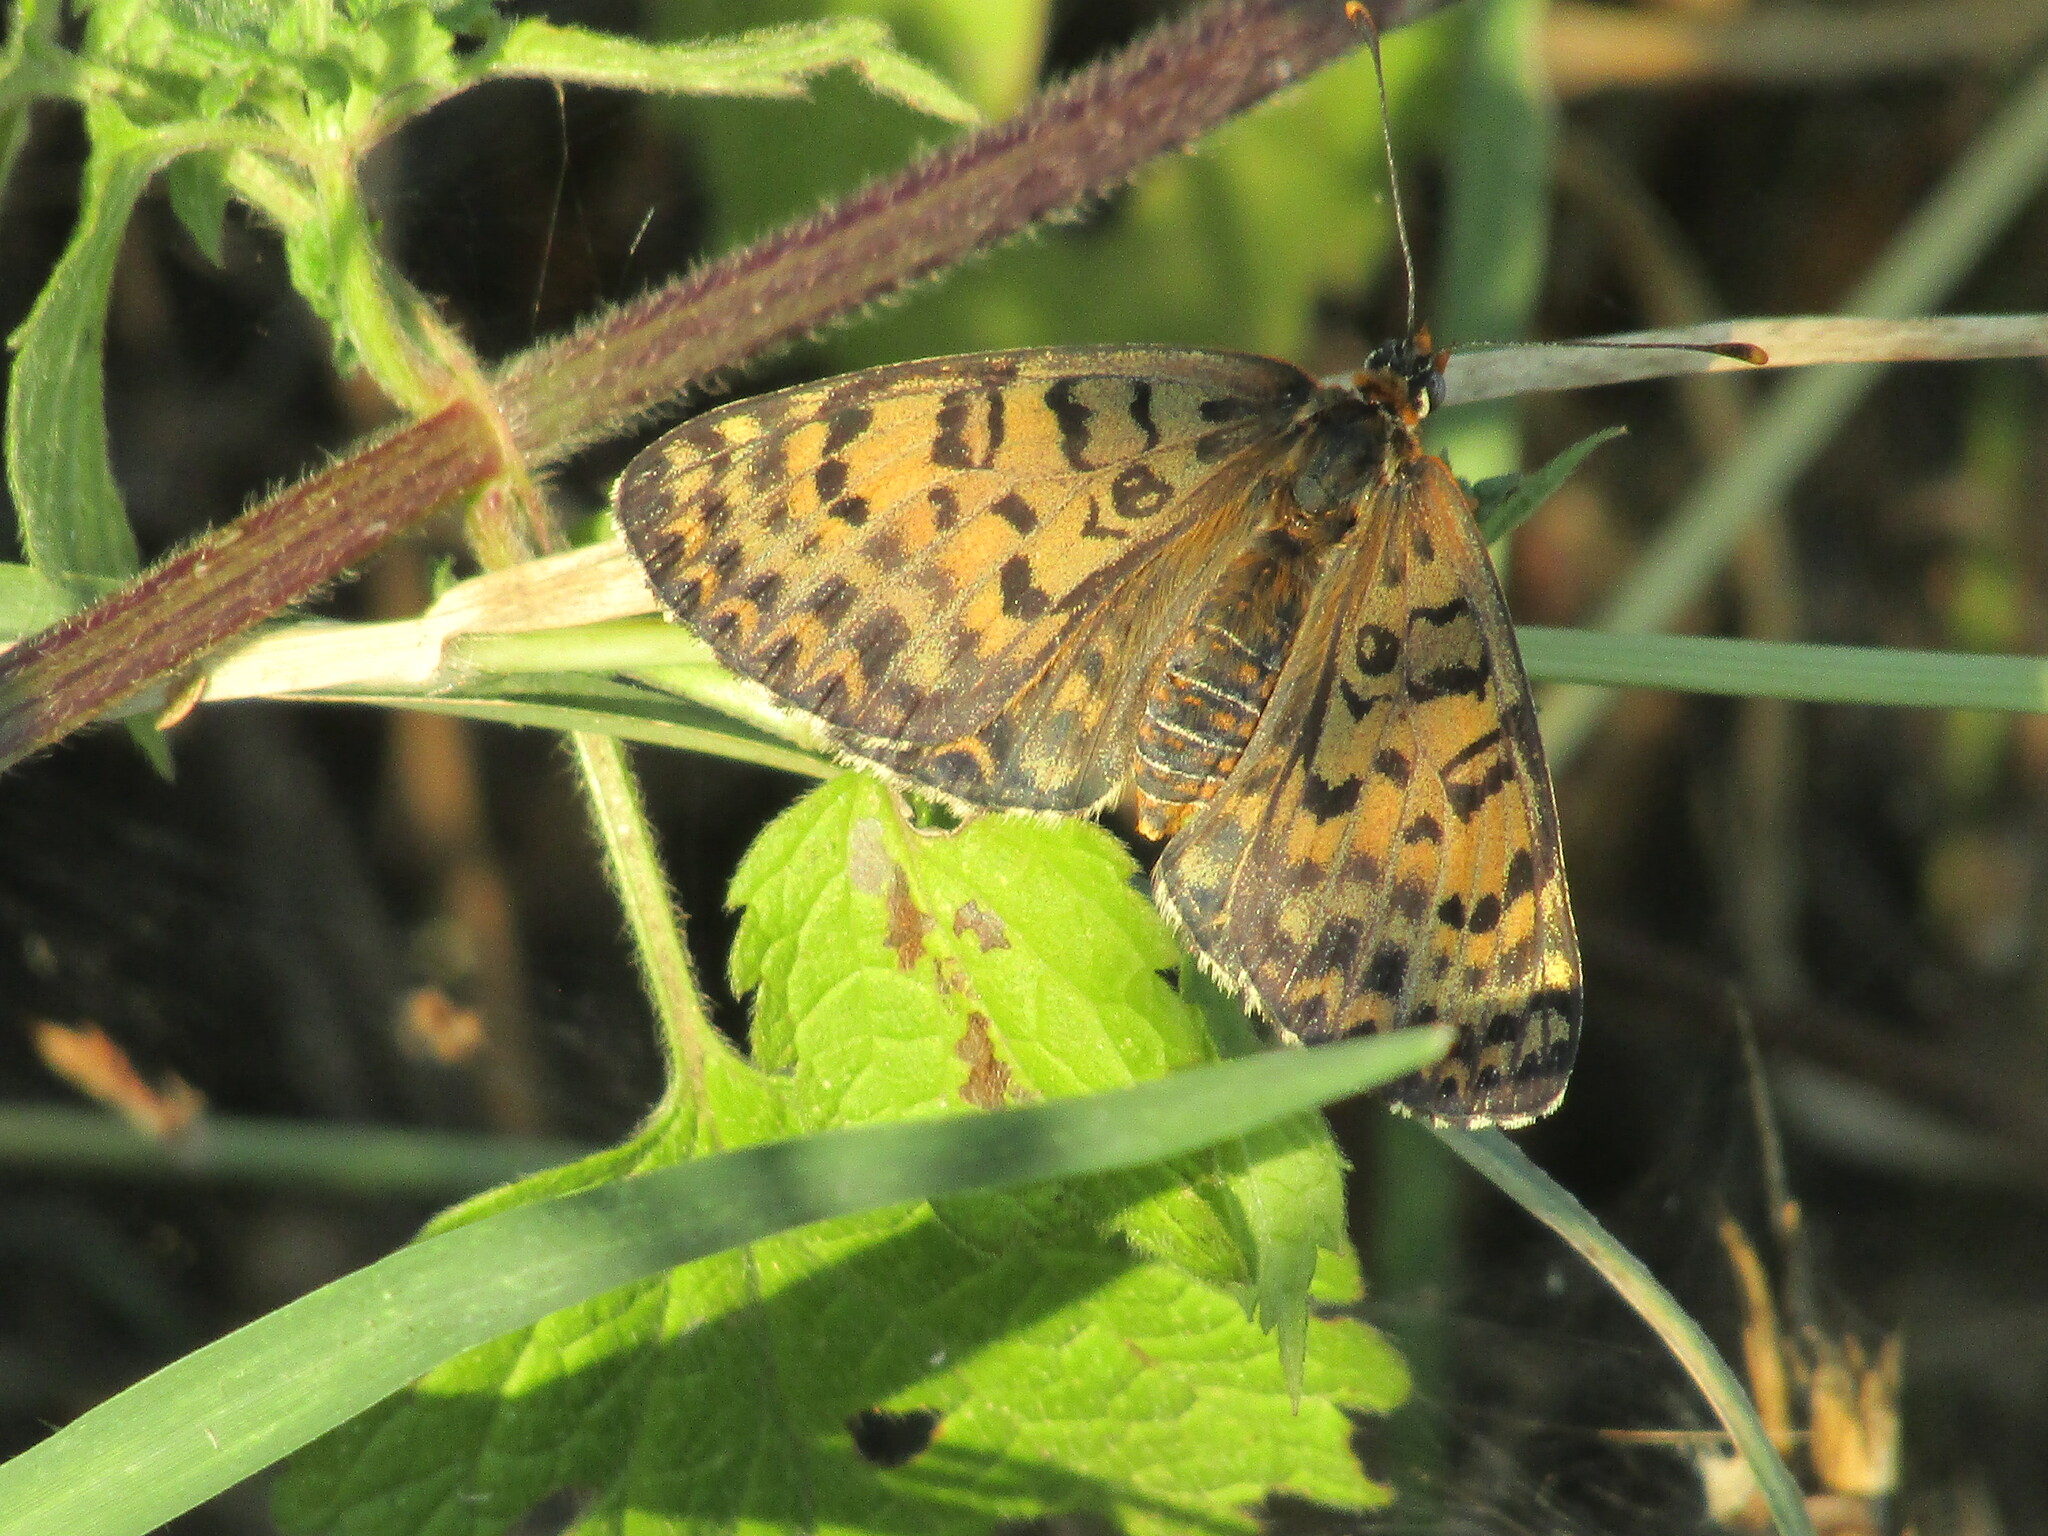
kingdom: Animalia
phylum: Arthropoda
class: Insecta
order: Lepidoptera
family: Nymphalidae
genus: Melitaea
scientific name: Melitaea didyma
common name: Spotted fritillary
